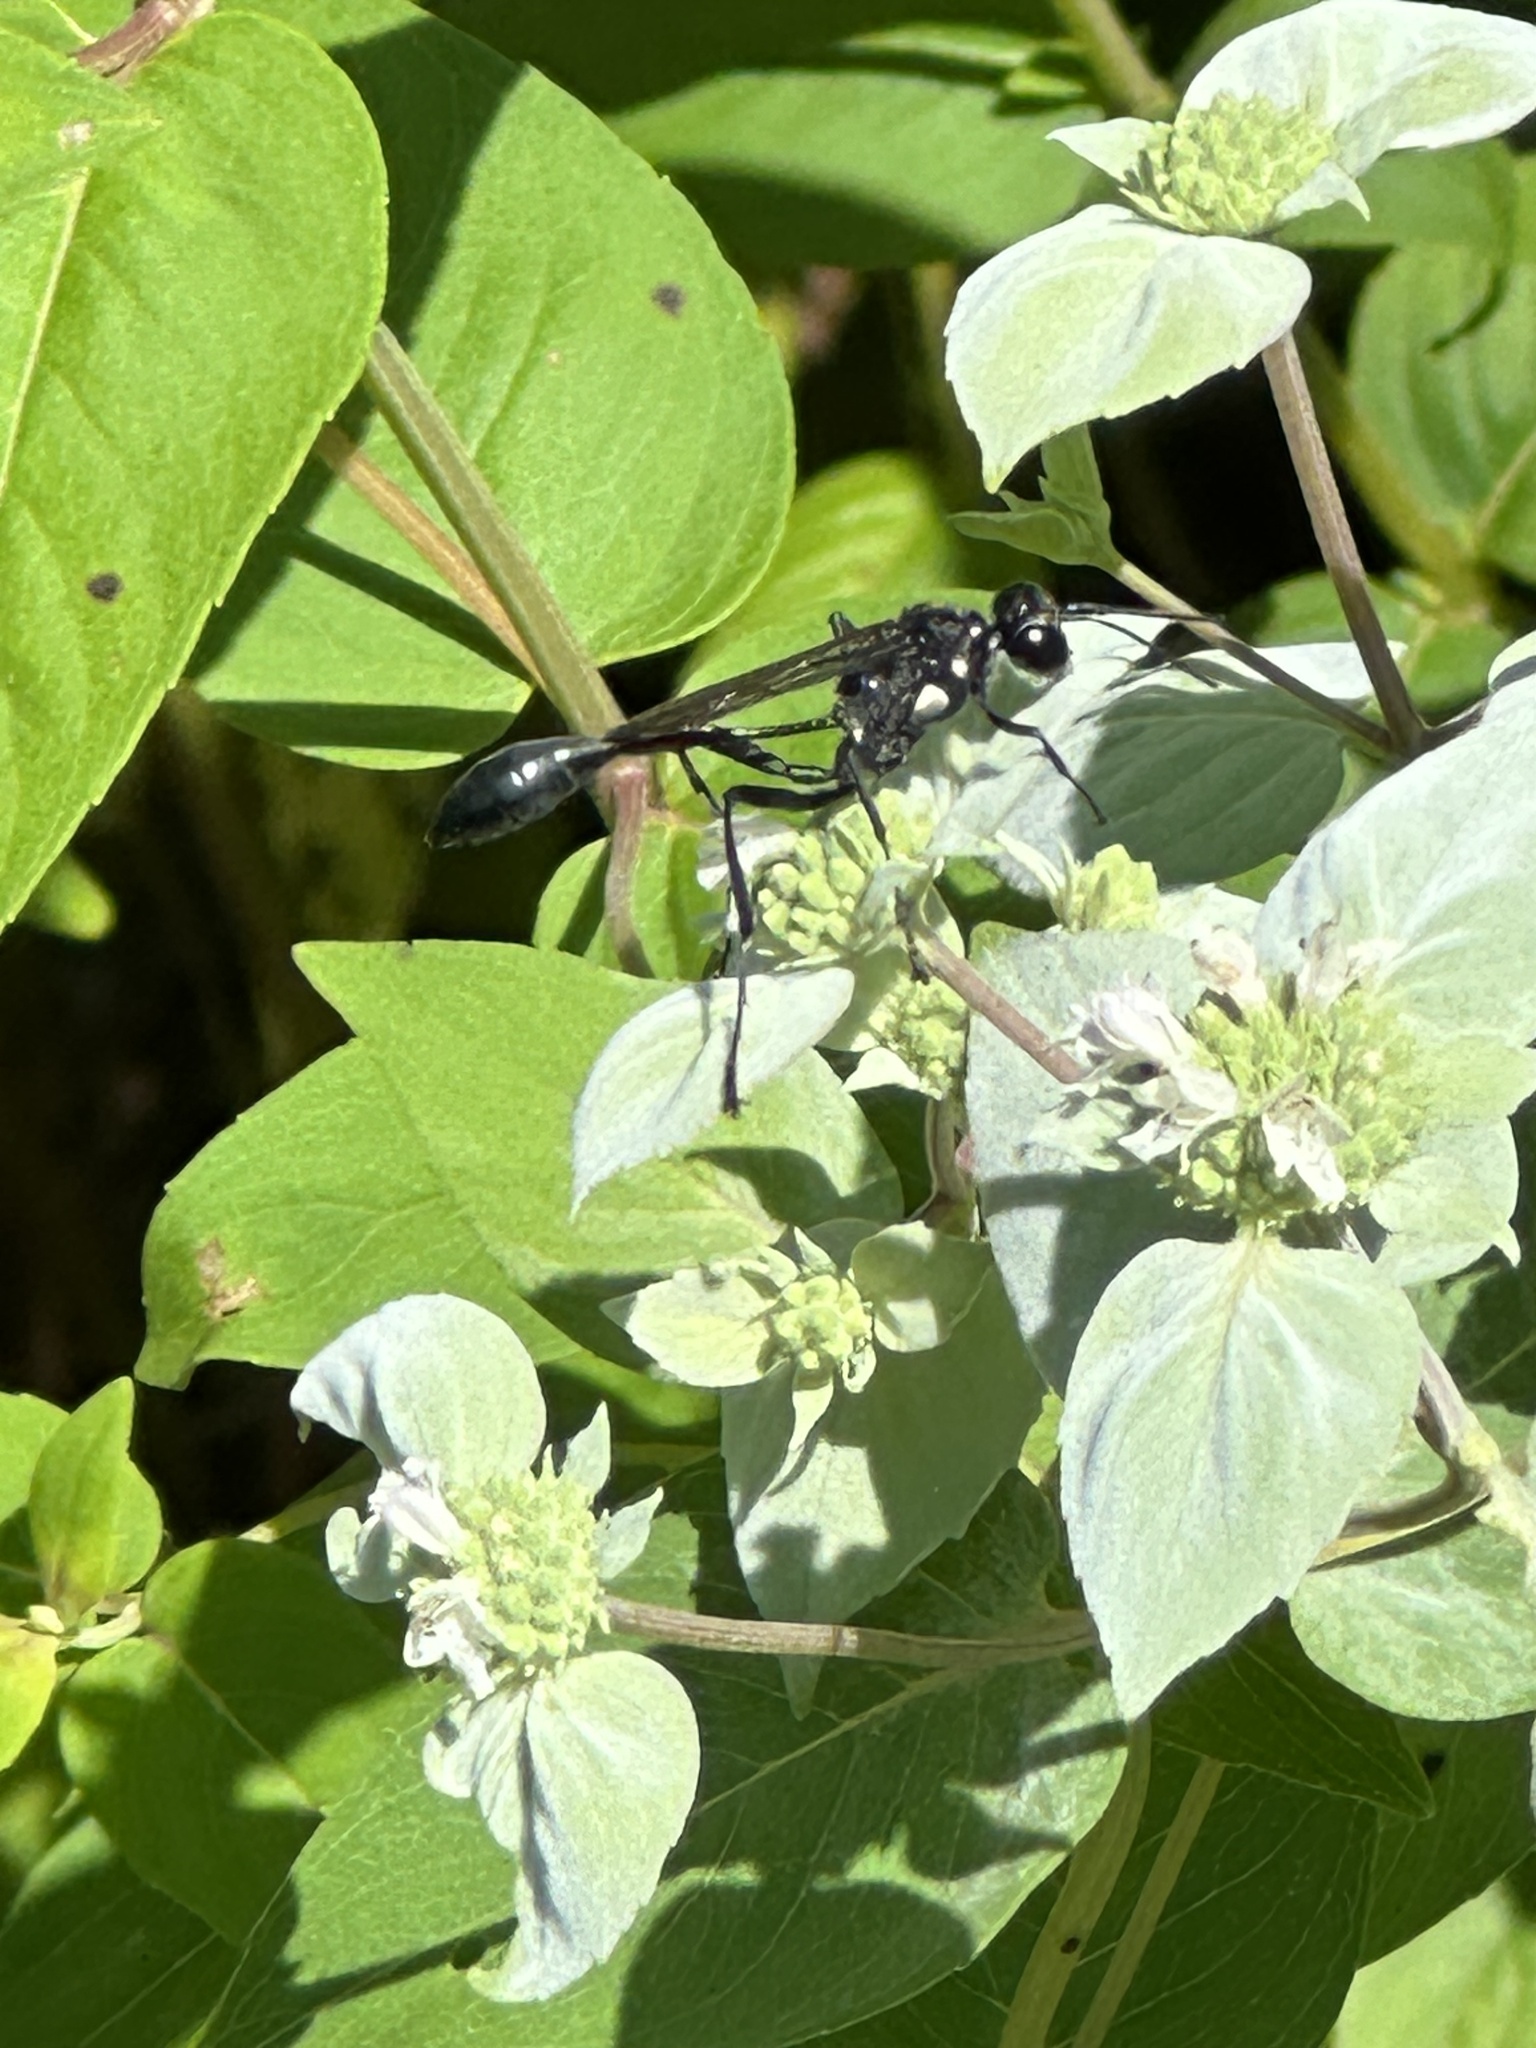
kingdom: Animalia
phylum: Arthropoda
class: Insecta
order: Hymenoptera
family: Sphecidae
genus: Eremnophila
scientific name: Eremnophila aureonotata
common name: Gold-marked thread-waisted wasp
